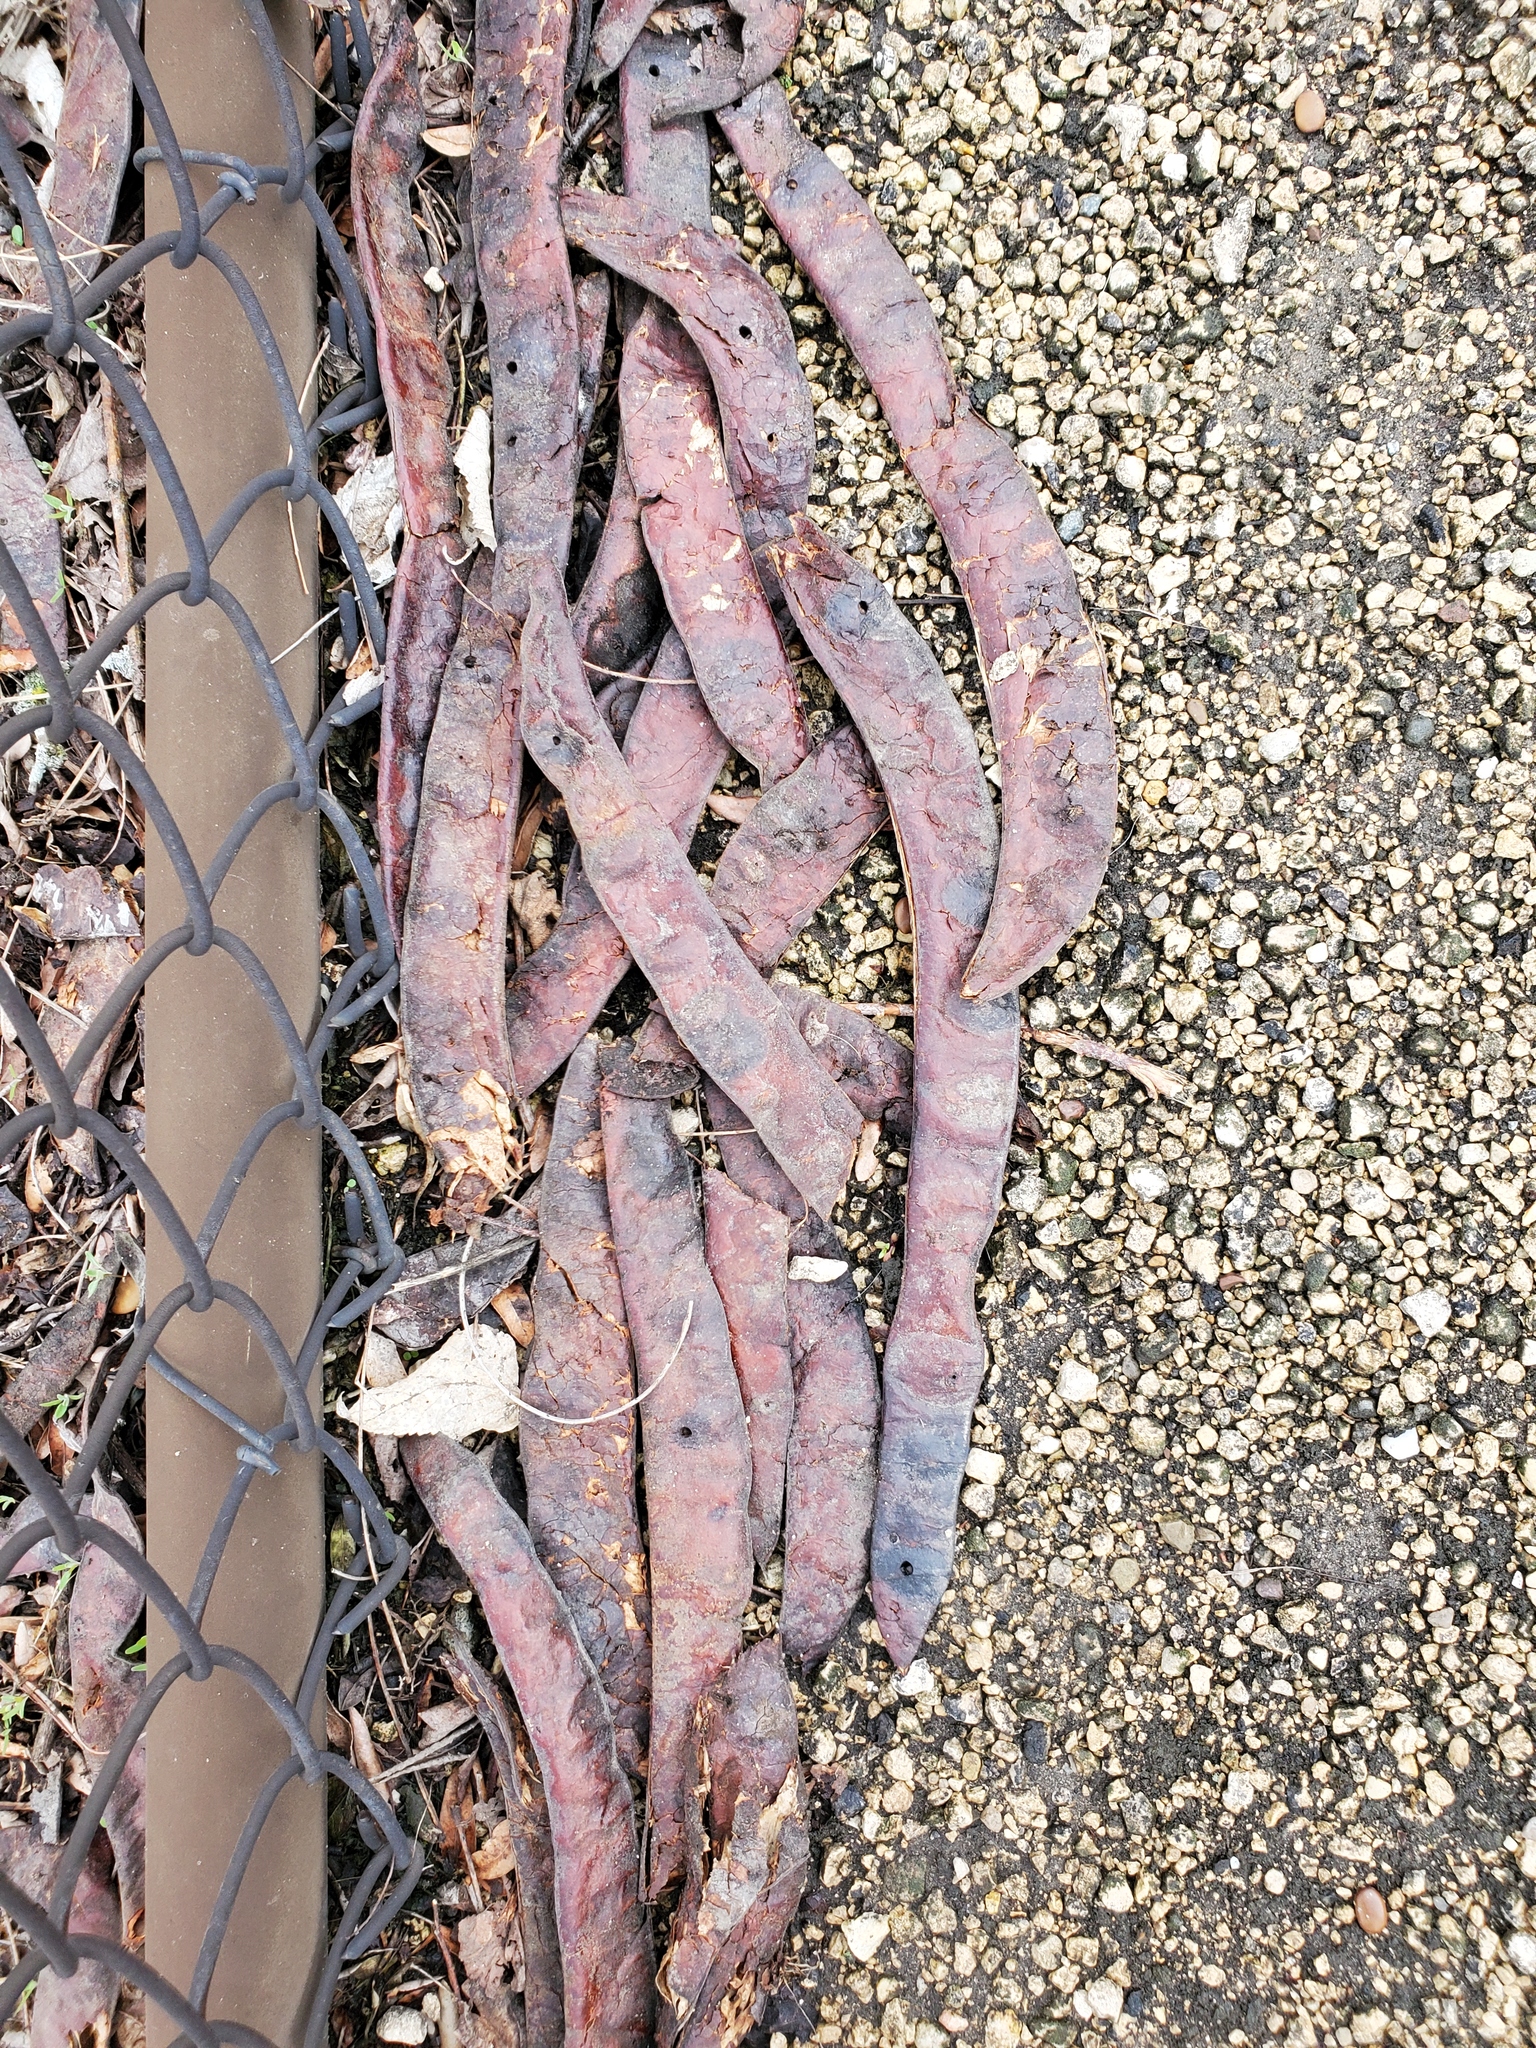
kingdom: Plantae
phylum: Tracheophyta
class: Magnoliopsida
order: Fabales
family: Fabaceae
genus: Gleditsia
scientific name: Gleditsia triacanthos
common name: Common honeylocust
